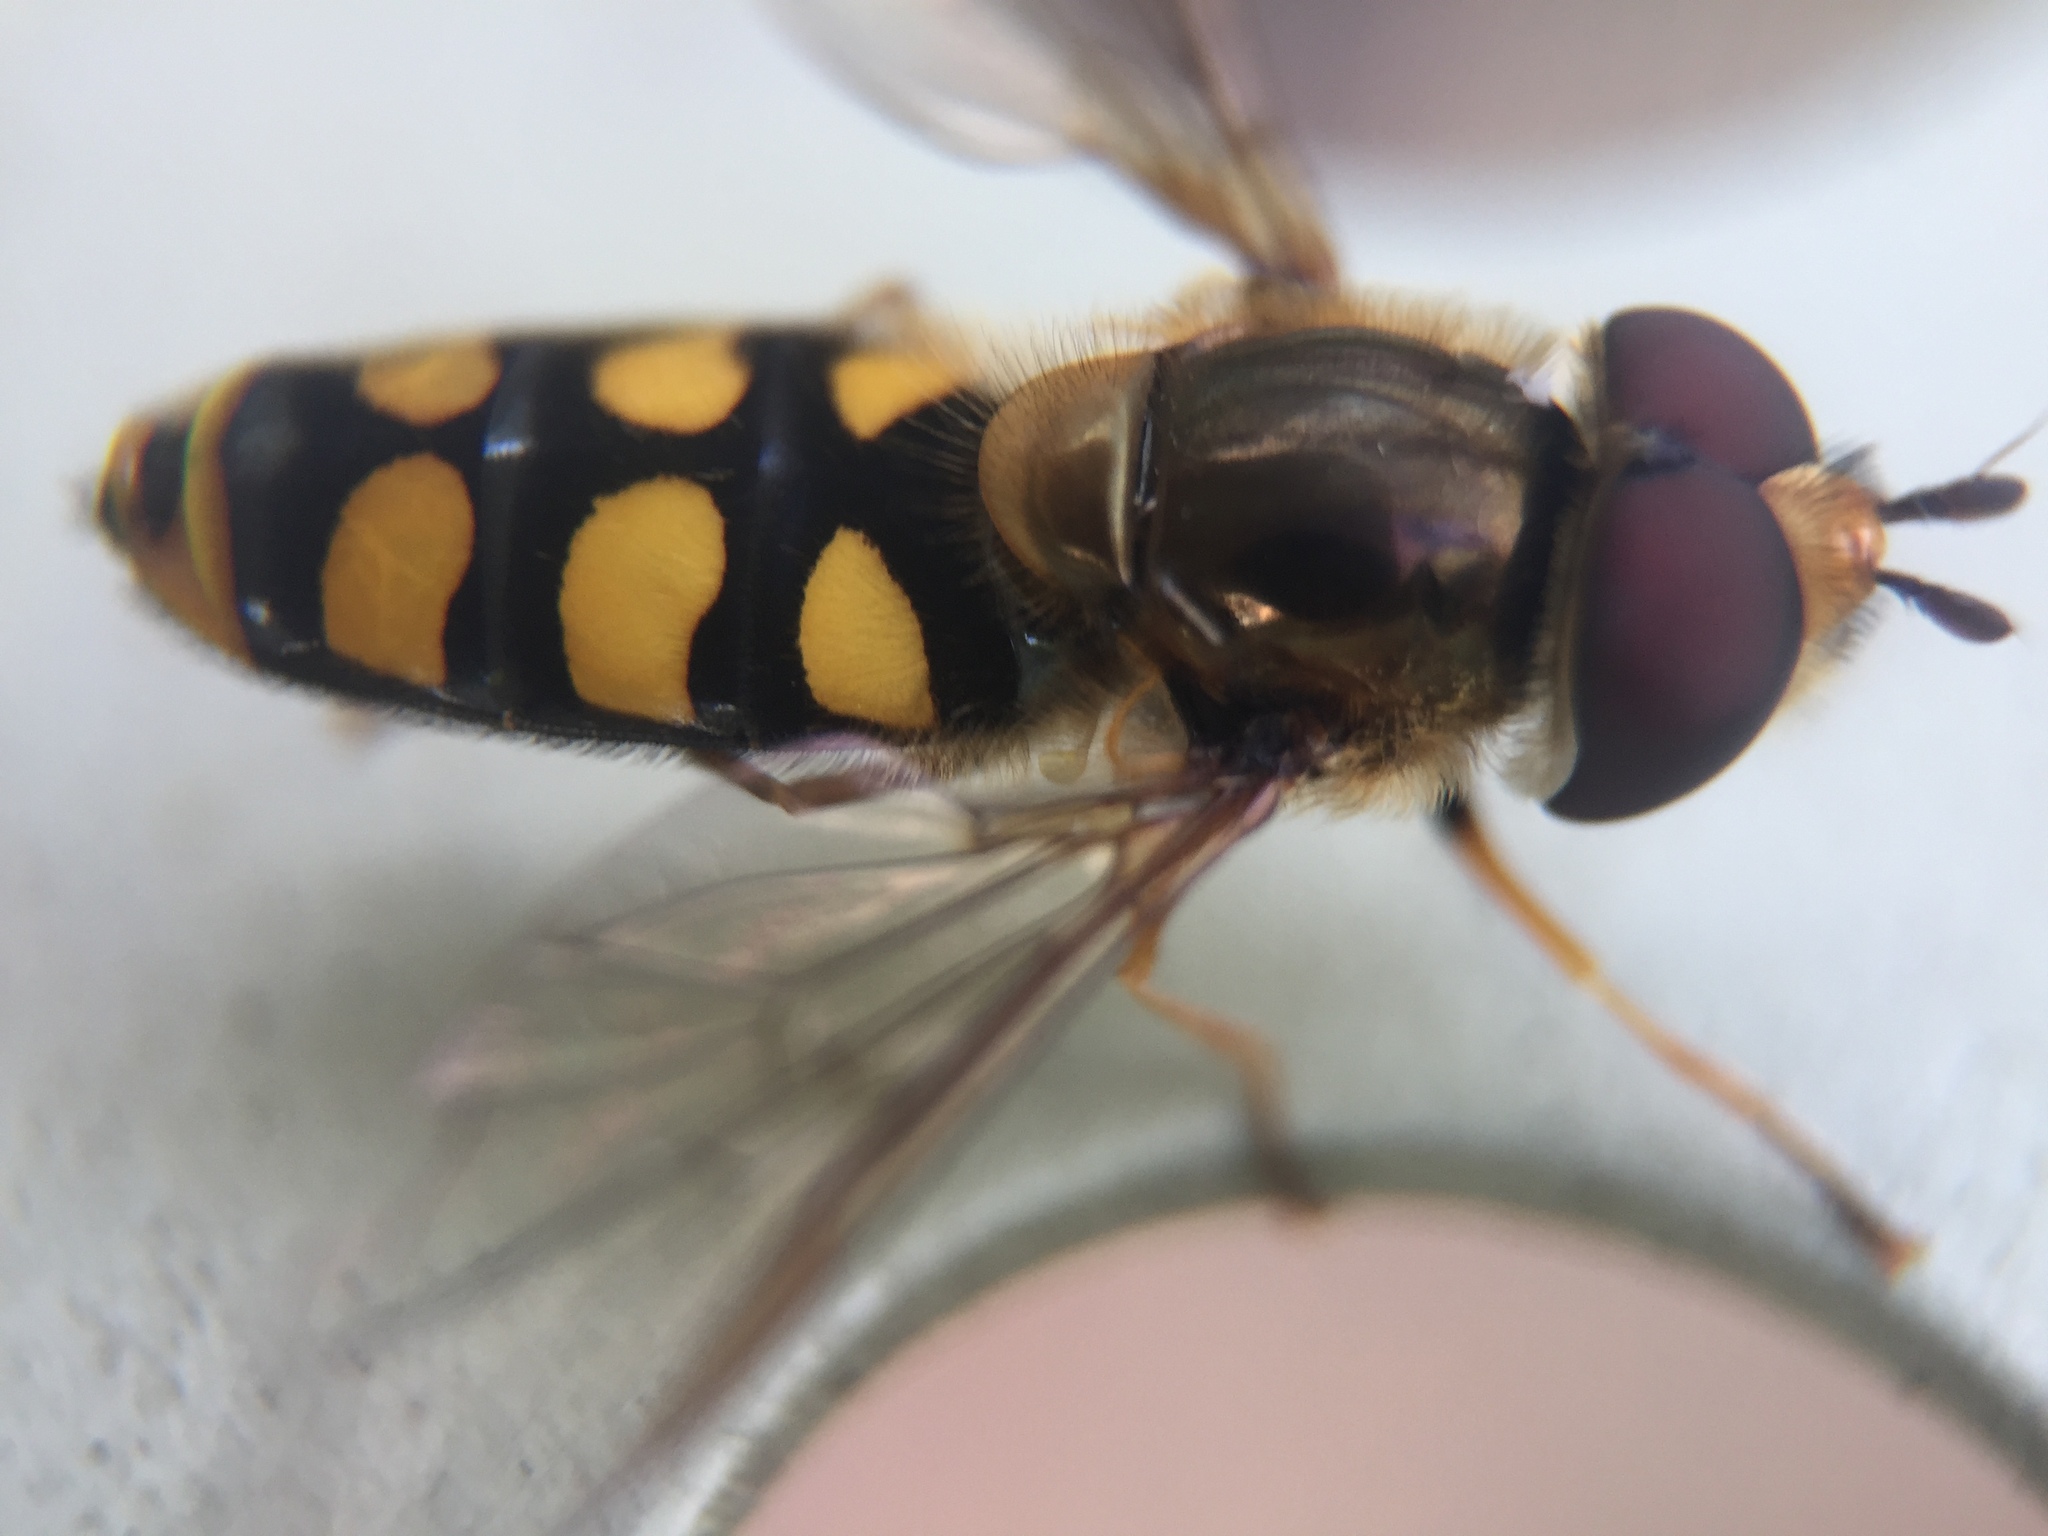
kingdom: Animalia
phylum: Arthropoda
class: Insecta
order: Diptera
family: Syrphidae
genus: Eupeodes
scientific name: Eupeodes
